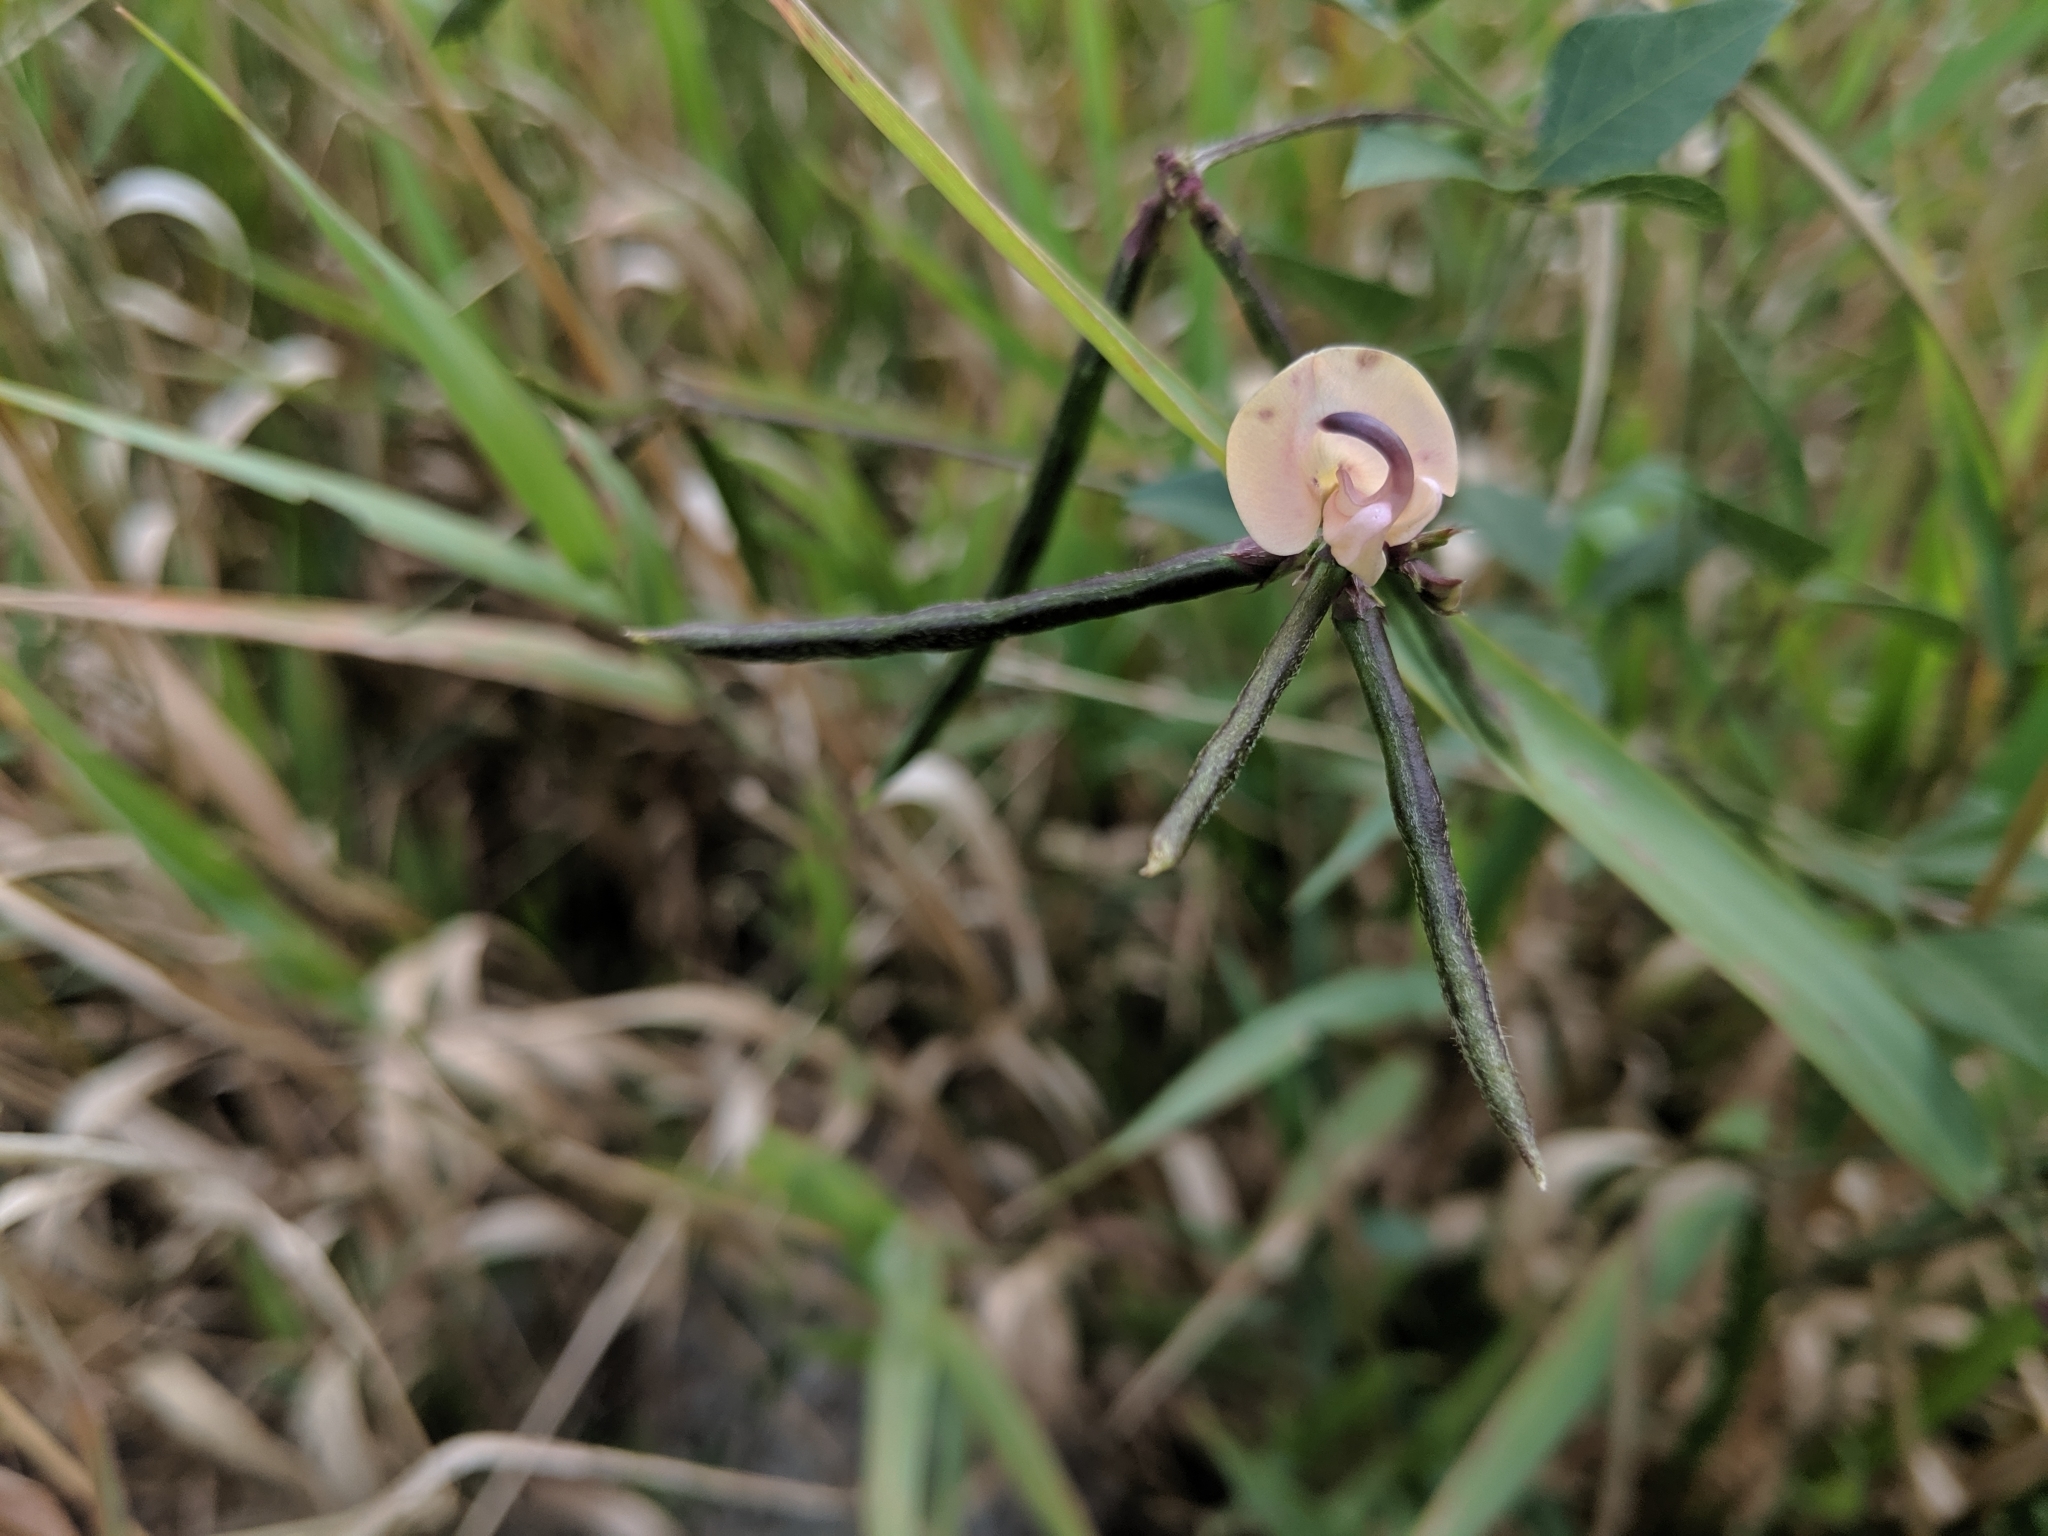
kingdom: Plantae
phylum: Tracheophyta
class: Magnoliopsida
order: Fabales
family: Fabaceae
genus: Strophostyles
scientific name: Strophostyles helvola
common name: Trailing wild bean
